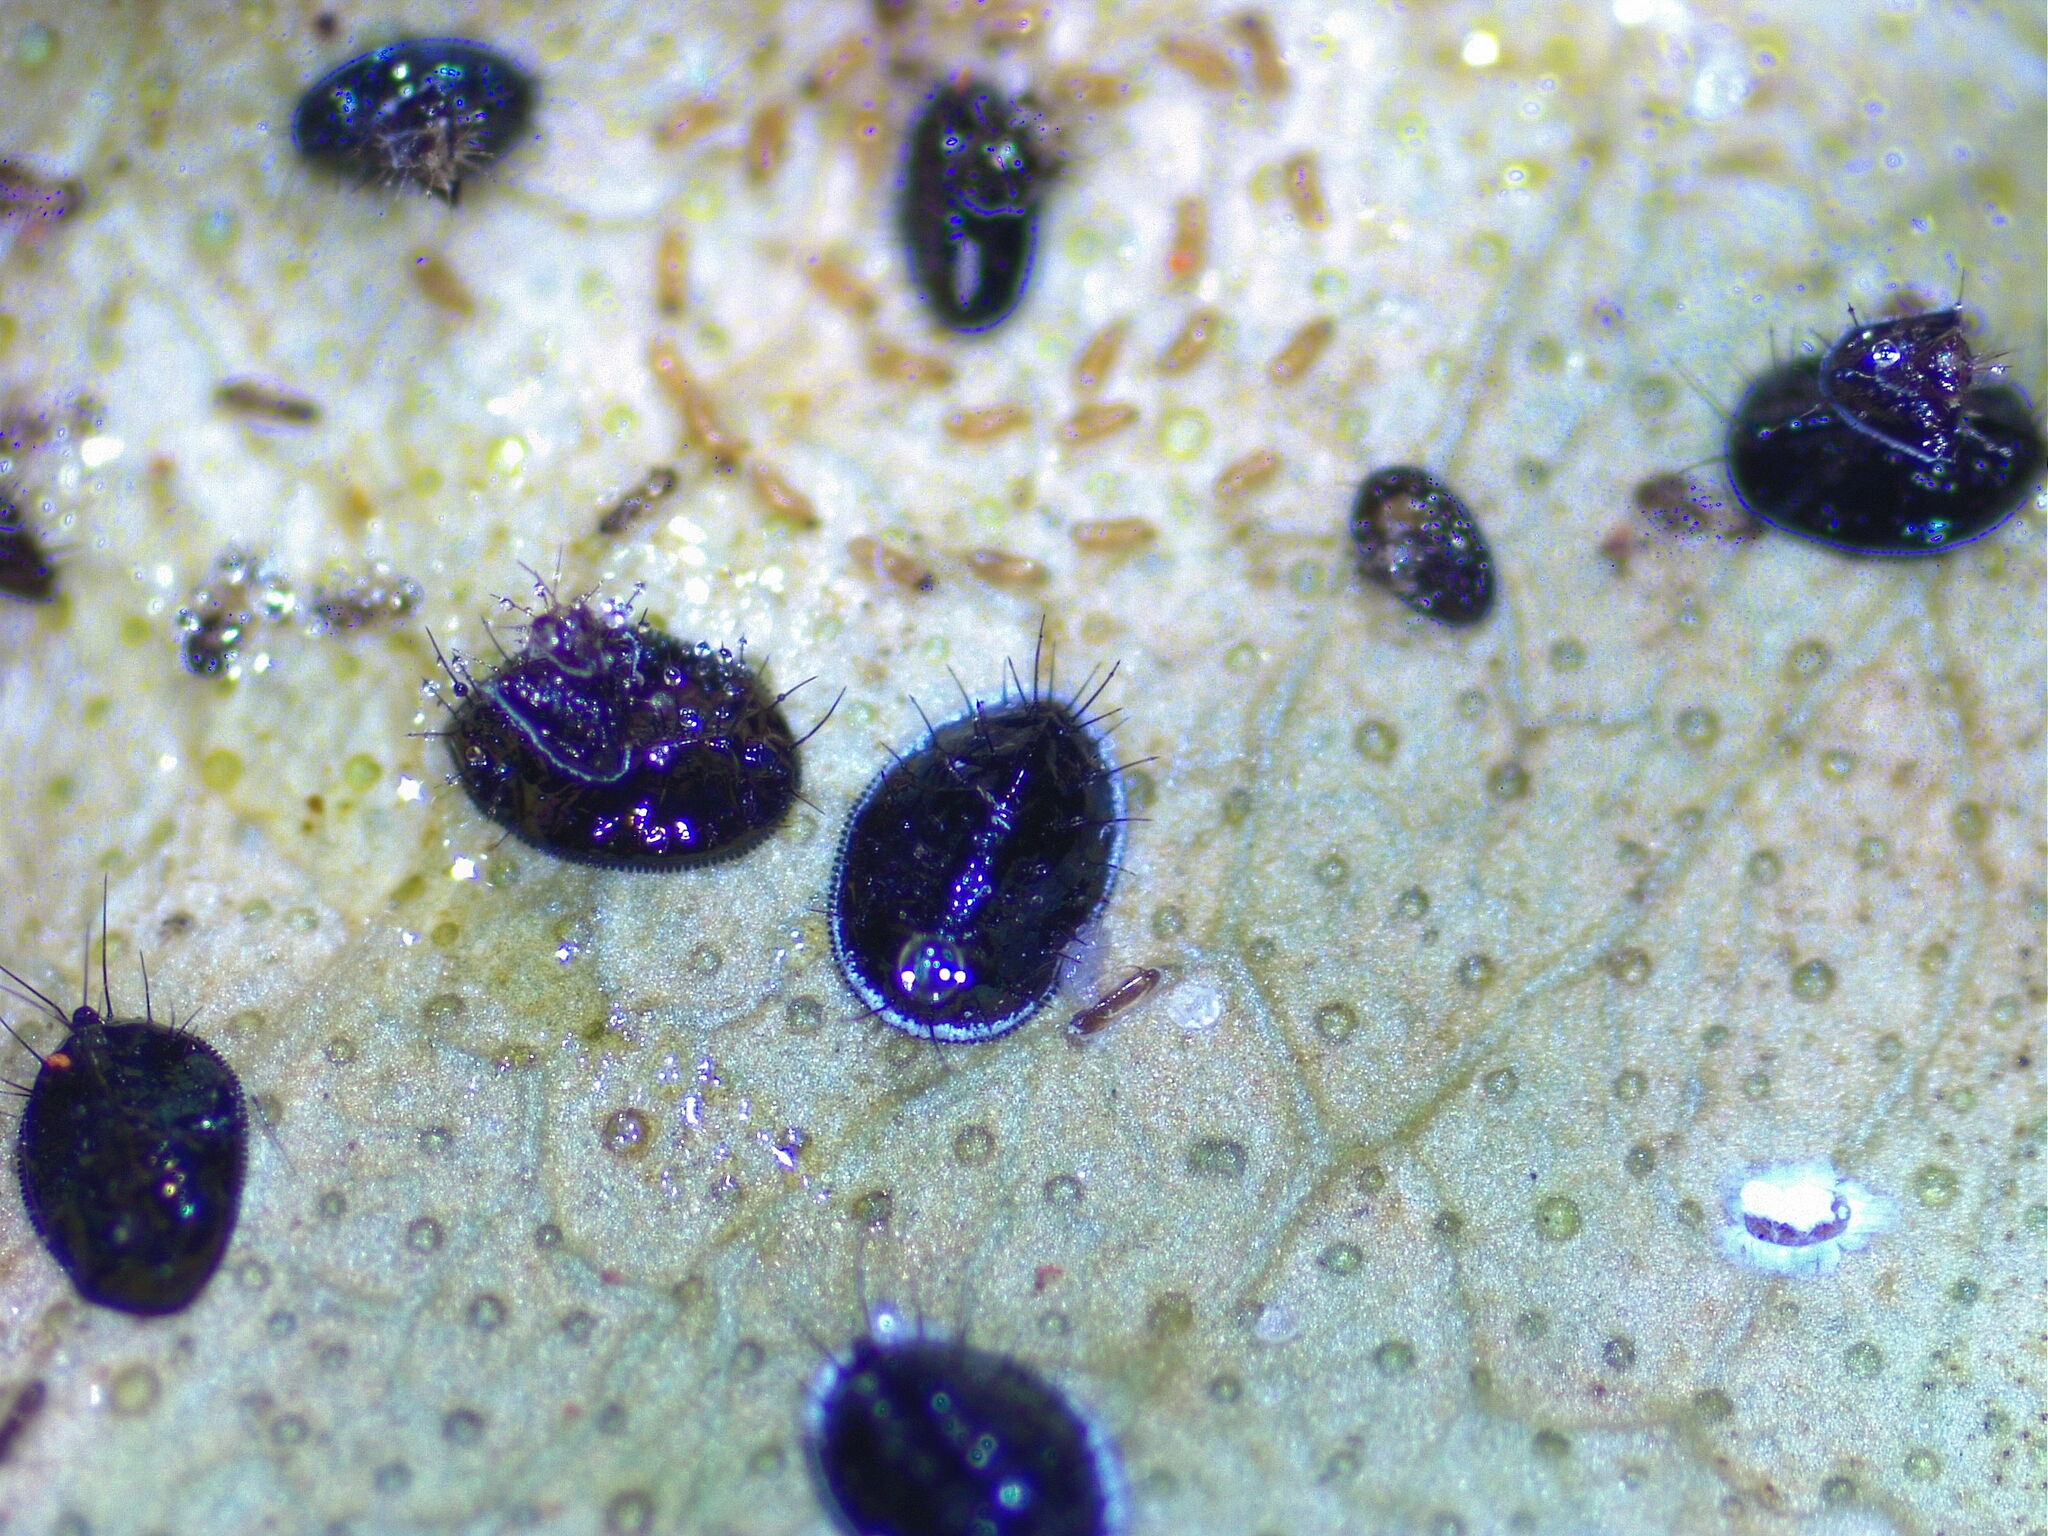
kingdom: Animalia
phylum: Arthropoda
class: Insecta
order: Hemiptera
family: Aleyrodidae
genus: Aleurocanthus
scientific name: Aleurocanthus spiniferus
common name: Orange spiny whitefly
